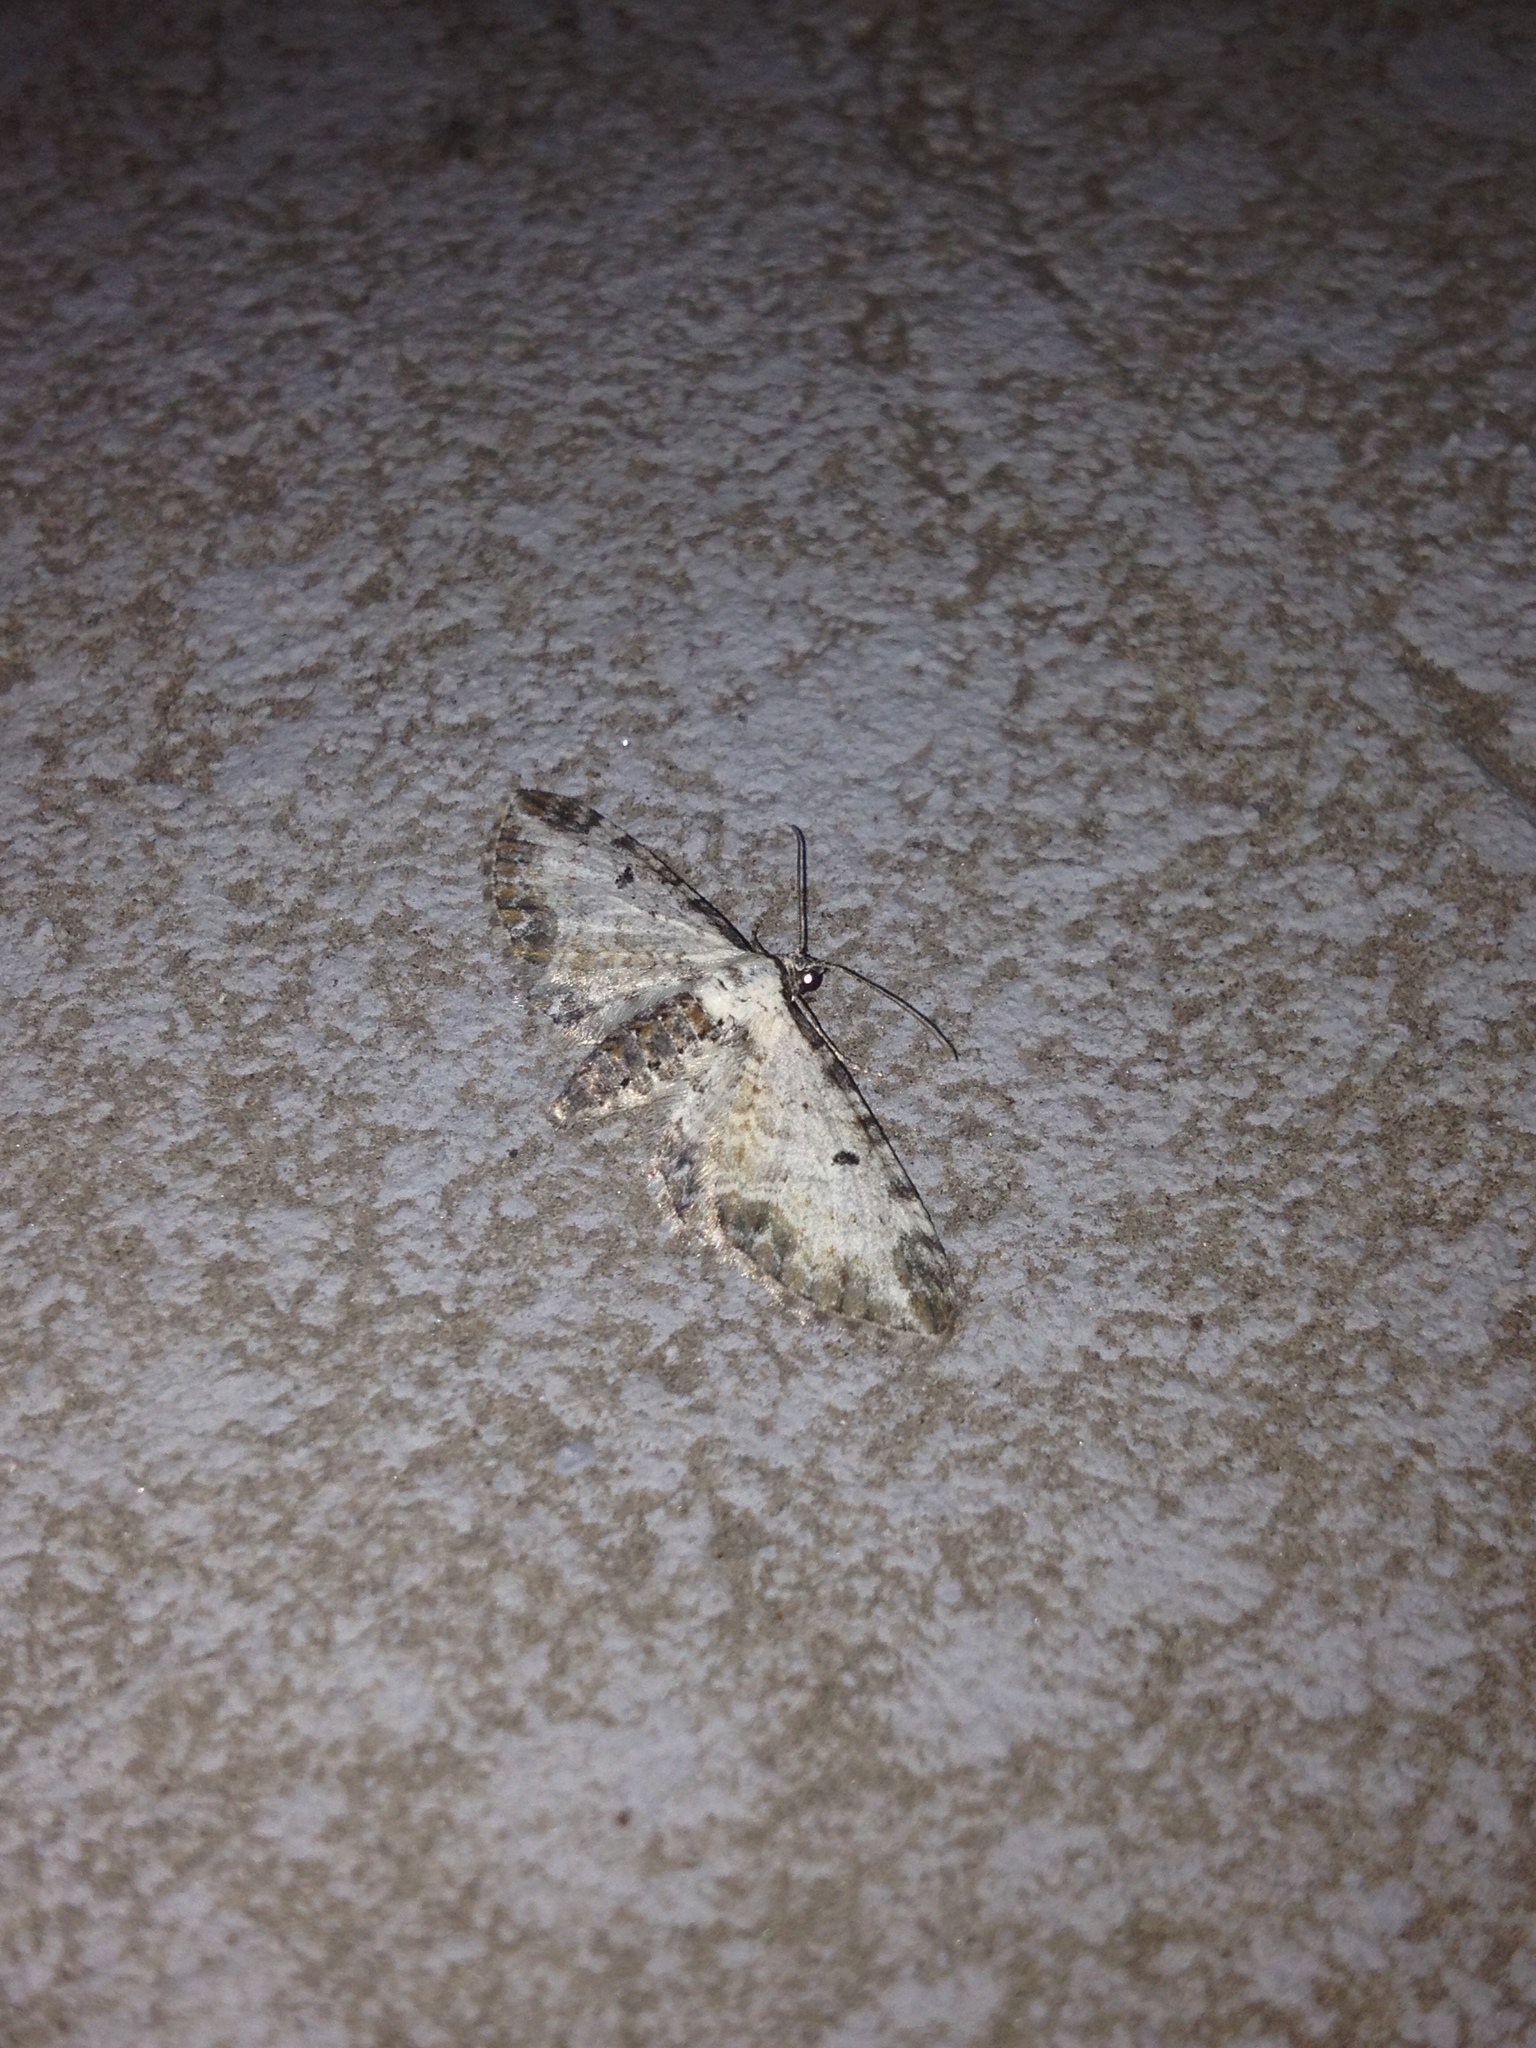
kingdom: Animalia
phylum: Arthropoda
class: Insecta
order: Lepidoptera
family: Geometridae
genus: Eupithecia
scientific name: Eupithecia succenturiata
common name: Bordered pug
